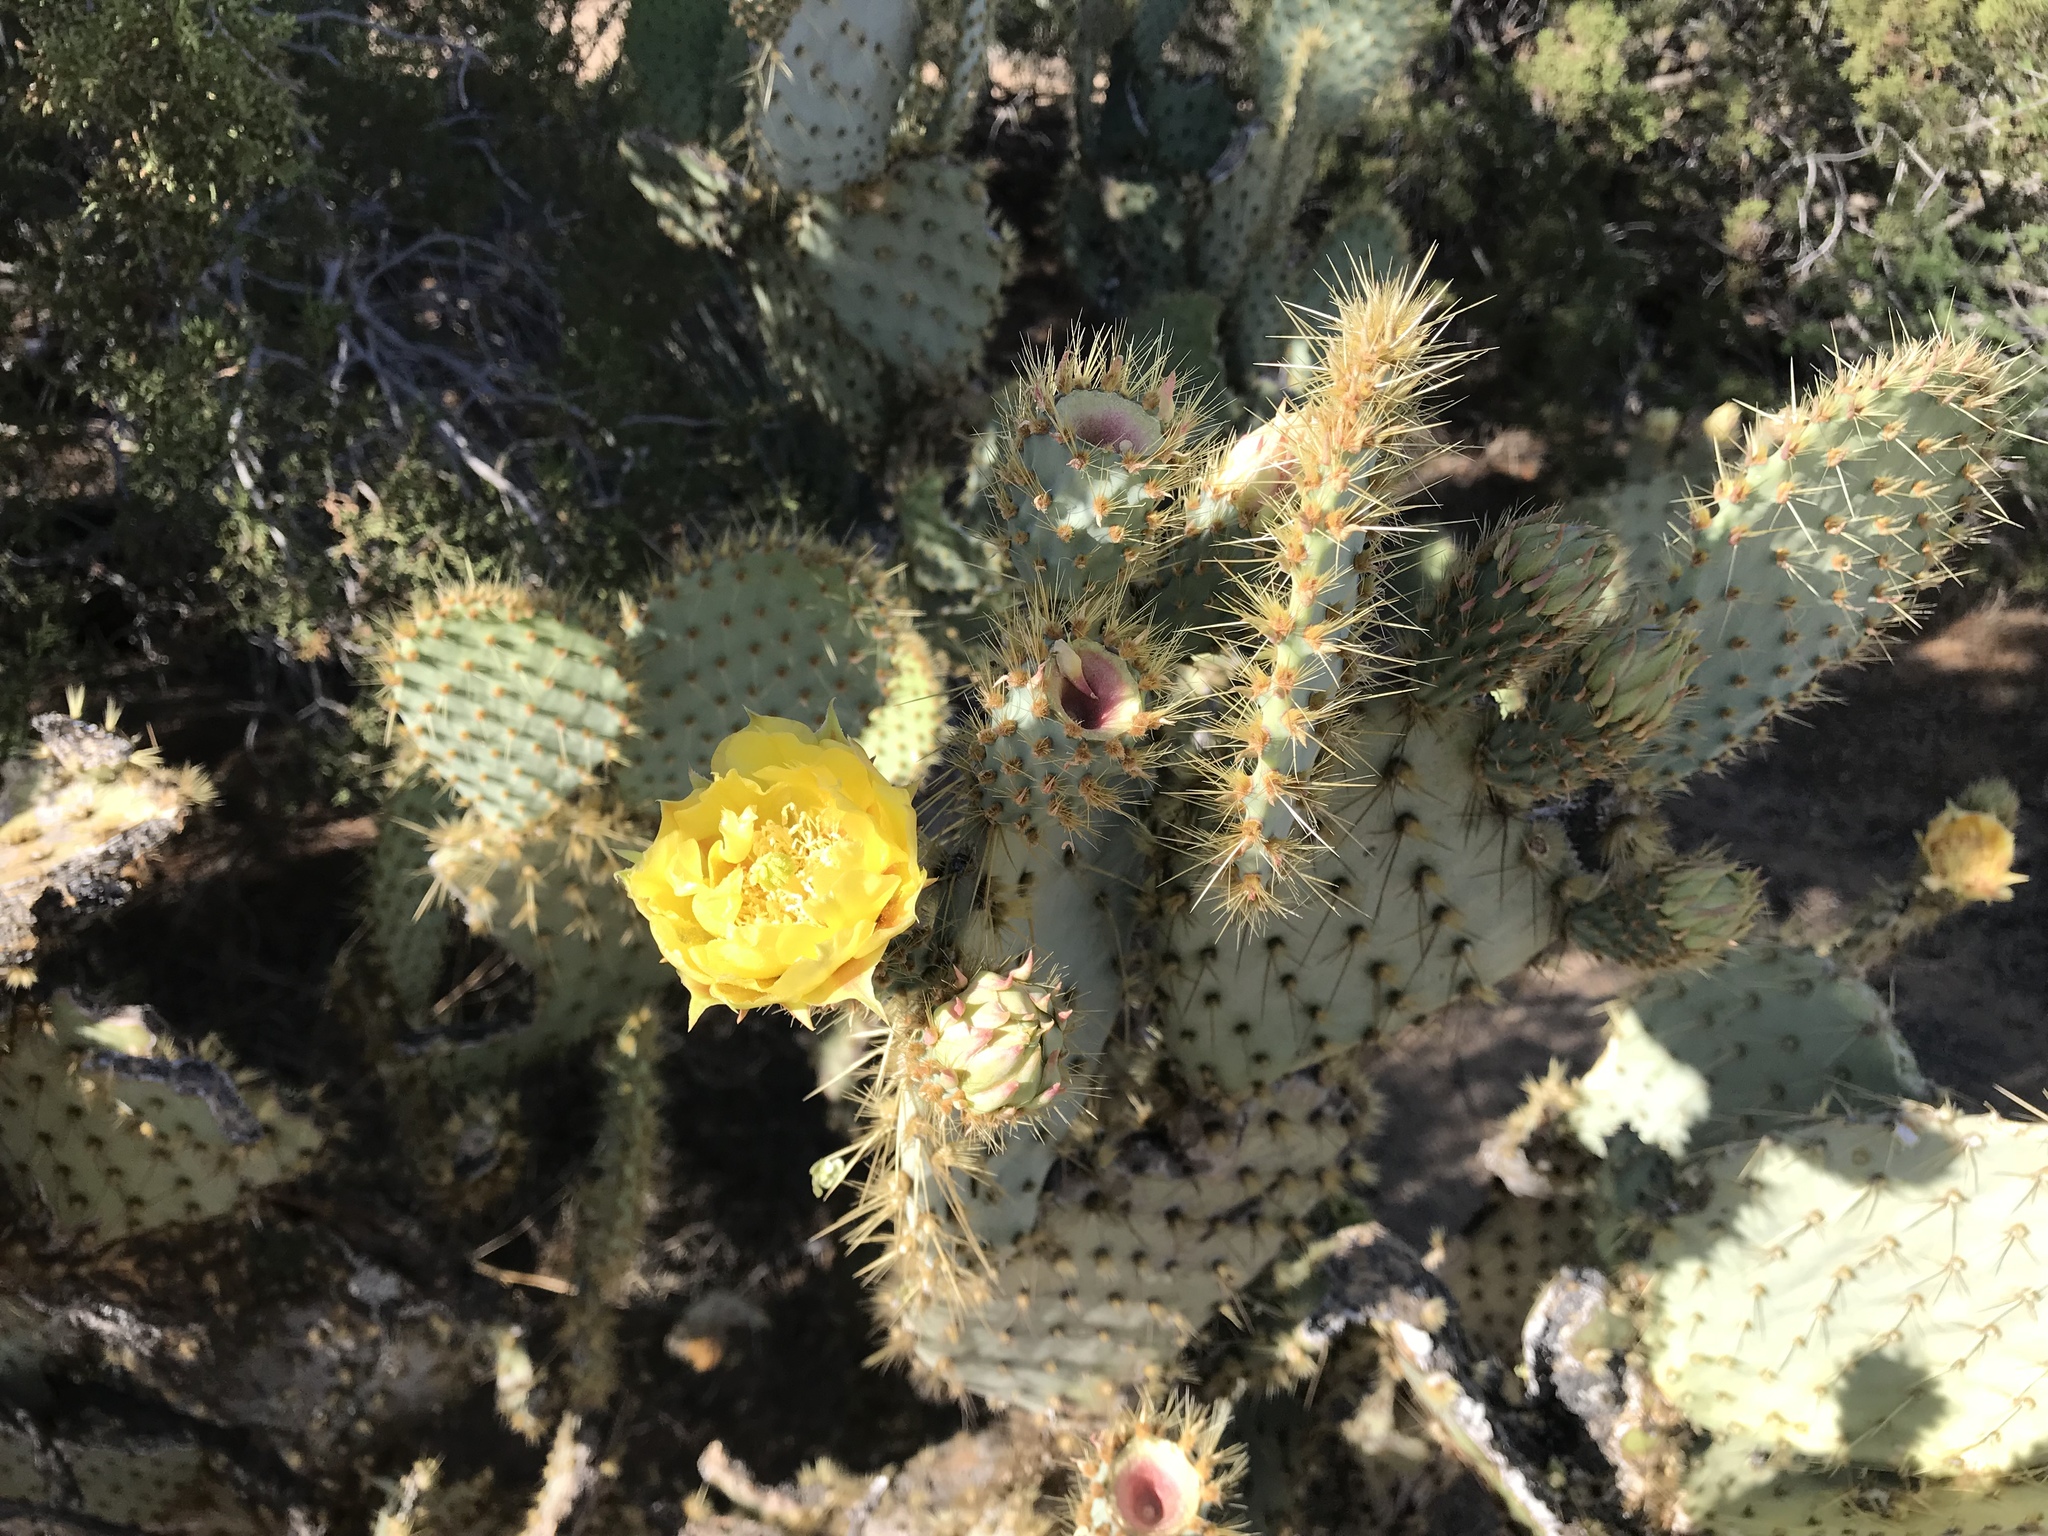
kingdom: Plantae
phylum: Tracheophyta
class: Magnoliopsida
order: Caryophyllales
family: Cactaceae
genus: Opuntia
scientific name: Opuntia chlorotica
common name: Dollar-joint prickly-pear
